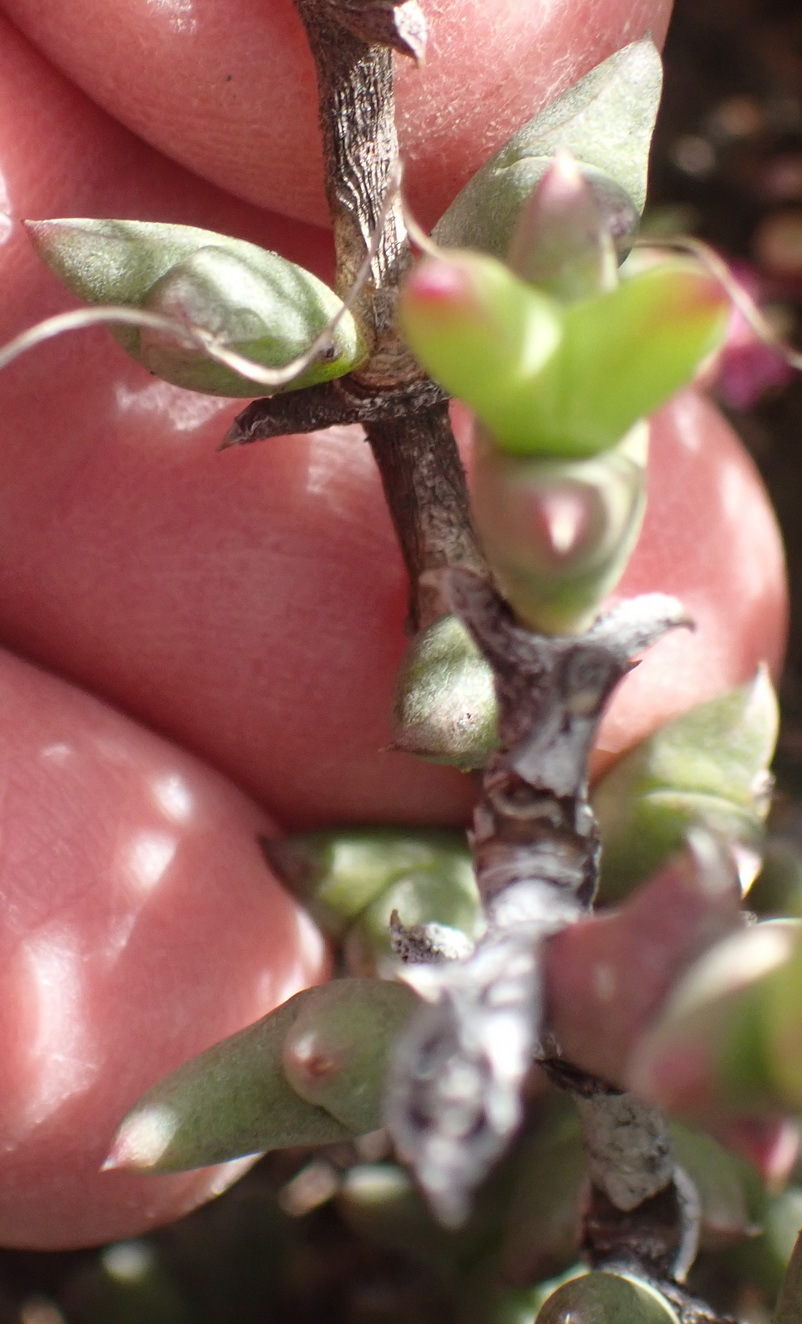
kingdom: Plantae
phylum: Tracheophyta
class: Magnoliopsida
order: Caryophyllales
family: Aizoaceae
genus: Smicrostigma
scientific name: Smicrostigma viride
